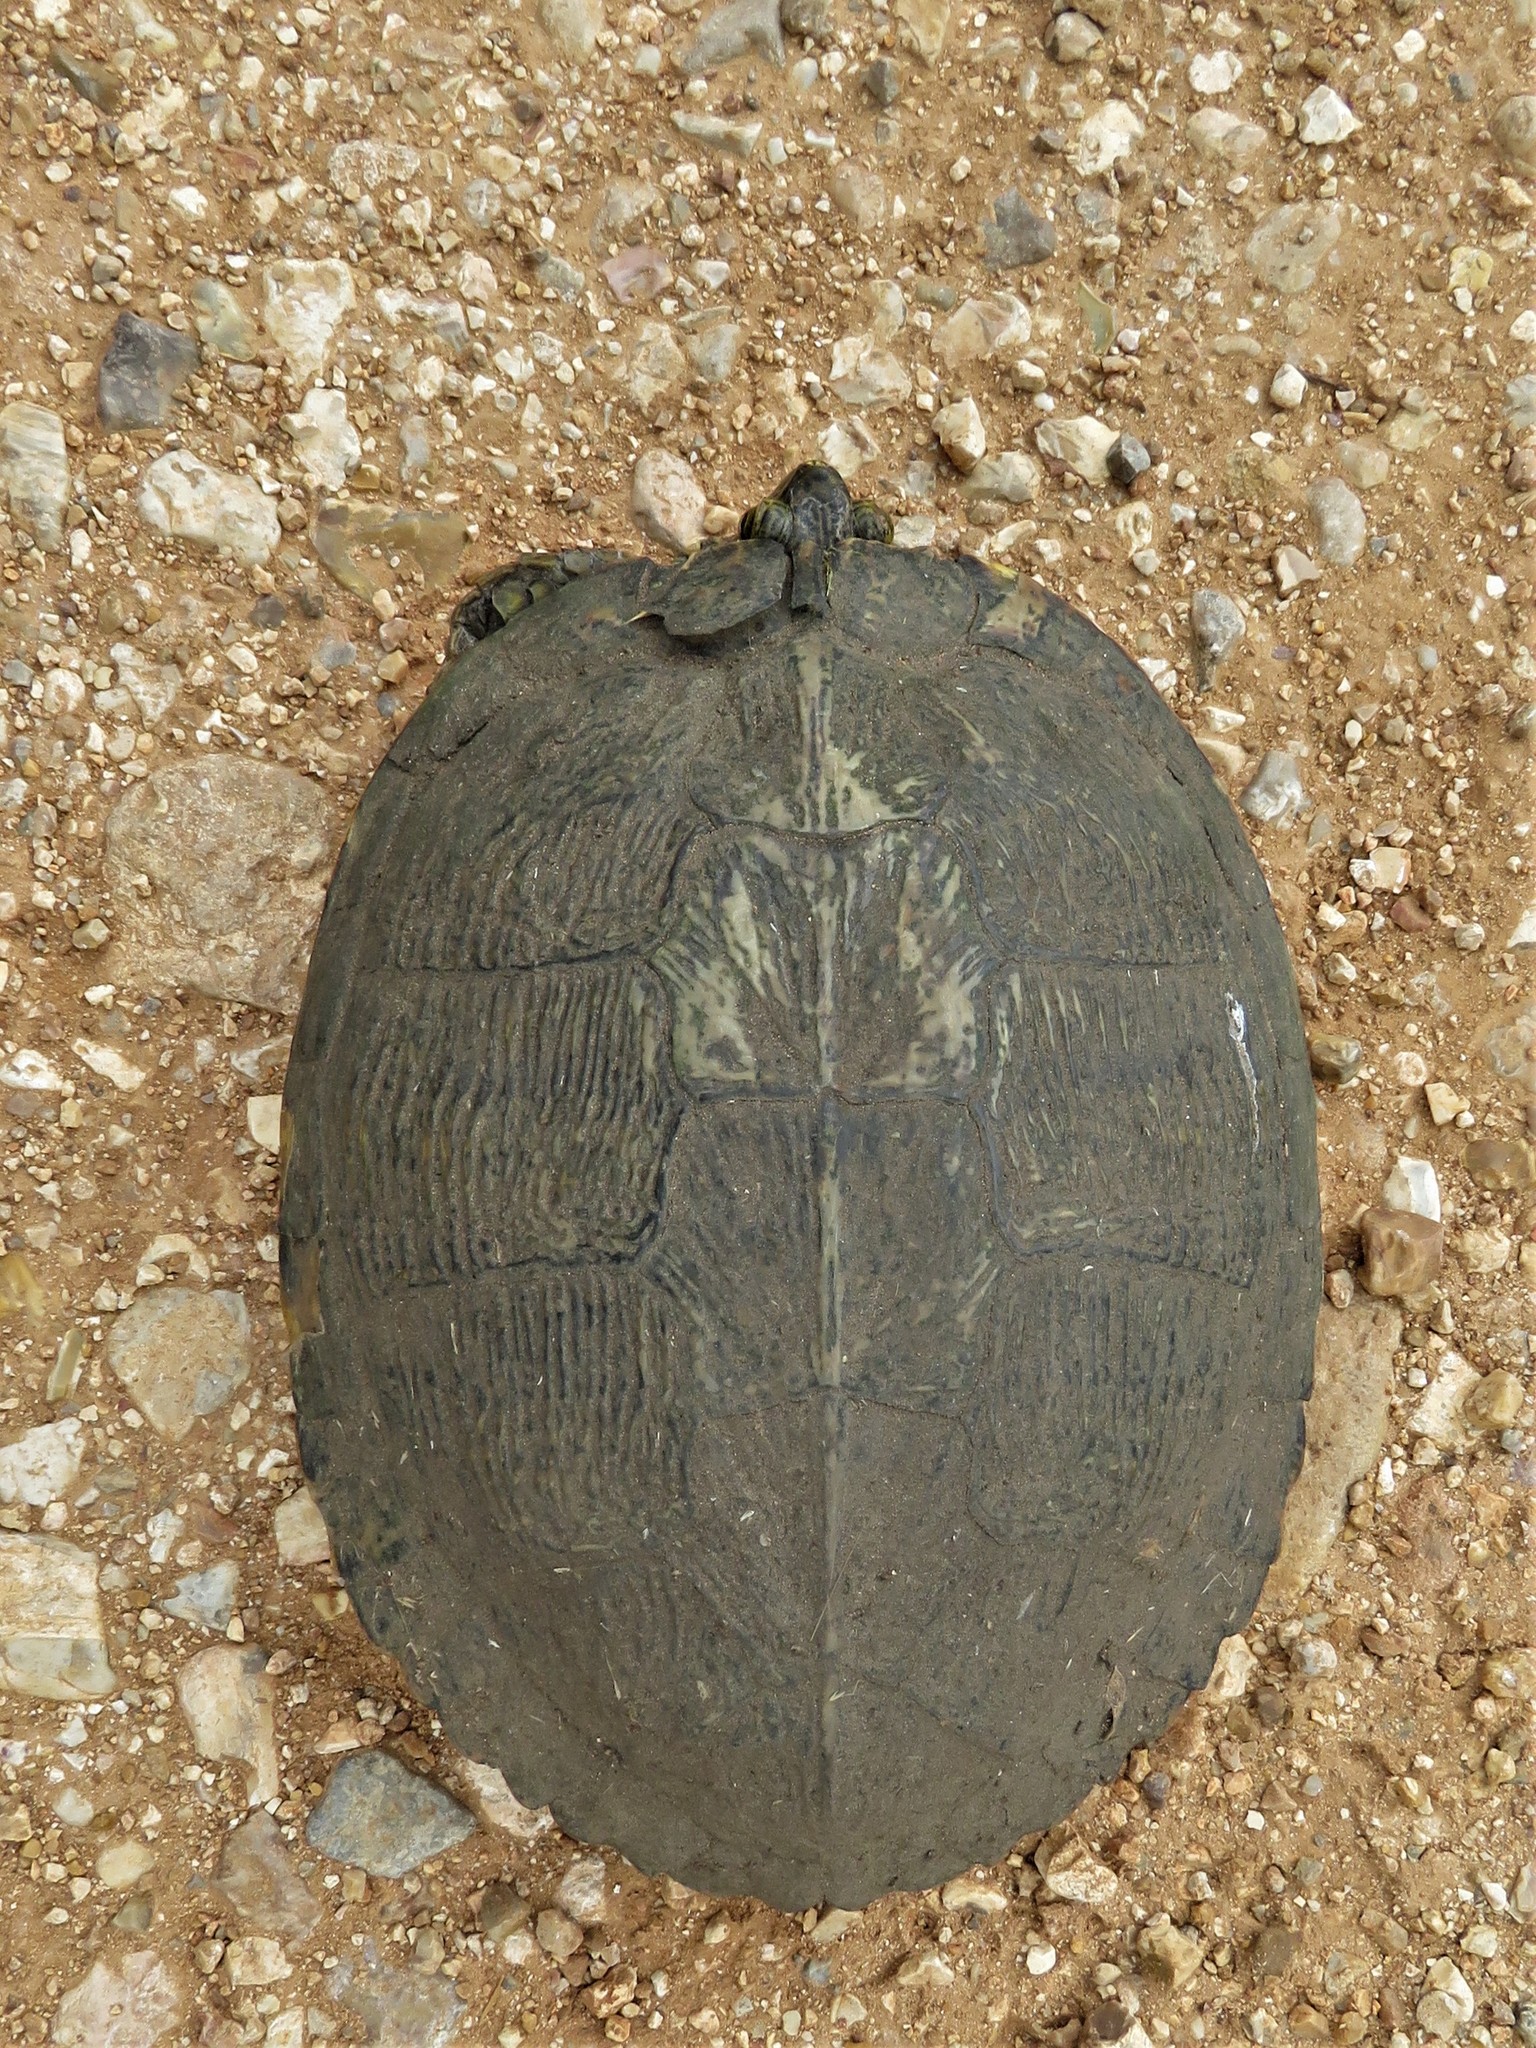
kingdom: Animalia
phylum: Chordata
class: Testudines
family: Emydidae
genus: Trachemys
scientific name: Trachemys scripta
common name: Slider
